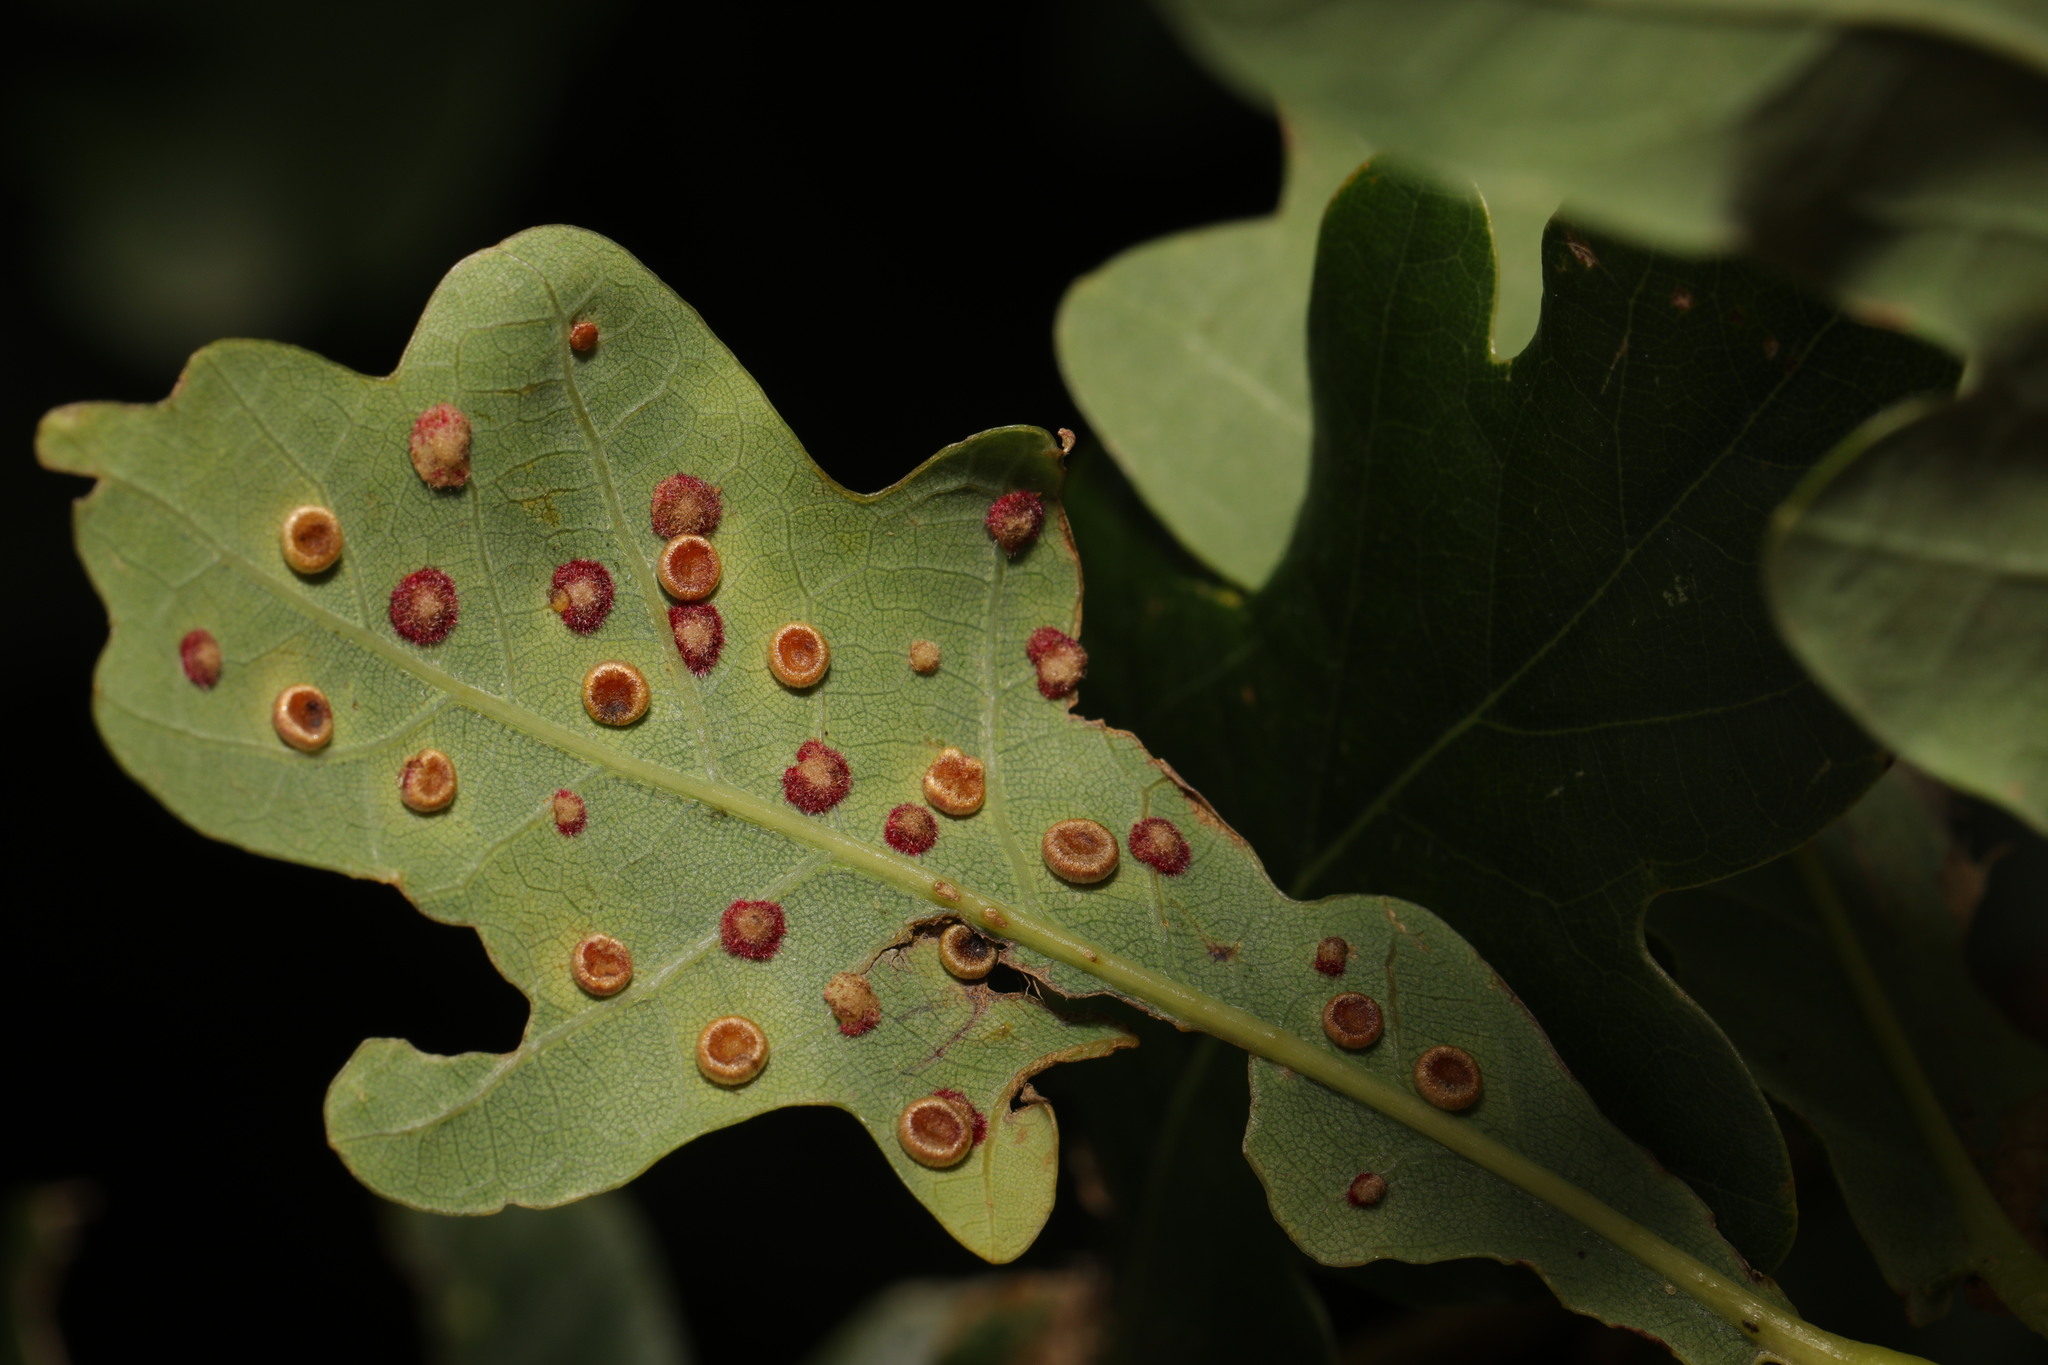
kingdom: Animalia
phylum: Arthropoda
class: Insecta
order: Hymenoptera
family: Cynipidae
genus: Neuroterus
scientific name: Neuroterus numismalis
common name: Silk-button spangle gall
